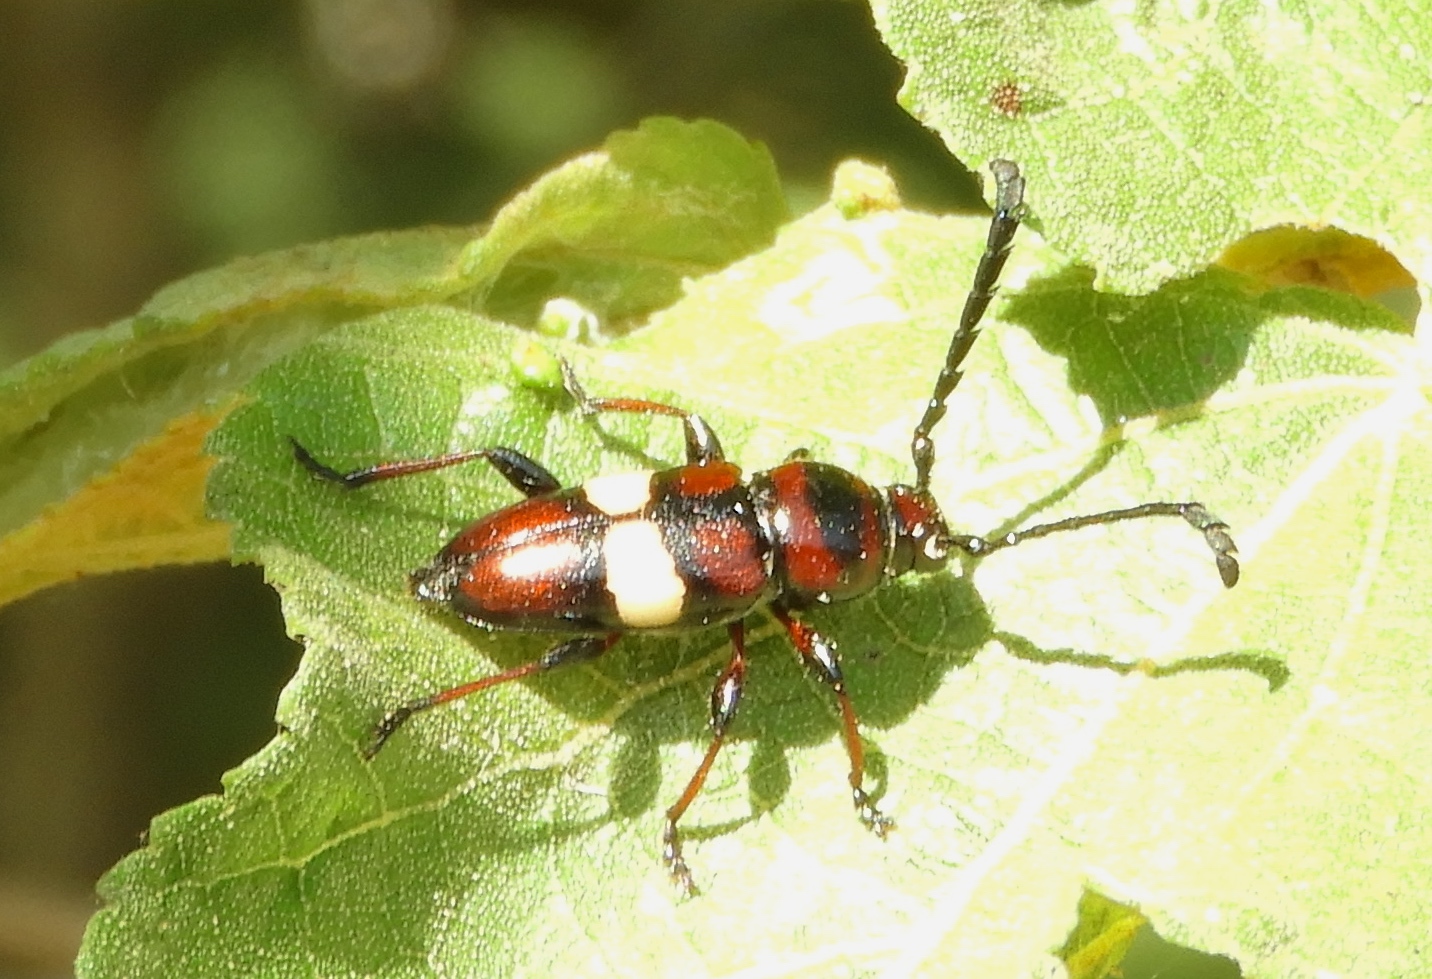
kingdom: Animalia
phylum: Arthropoda
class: Insecta
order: Coleoptera
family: Cerambycidae
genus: Lissonotus
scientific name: Lissonotus flavocinctus
